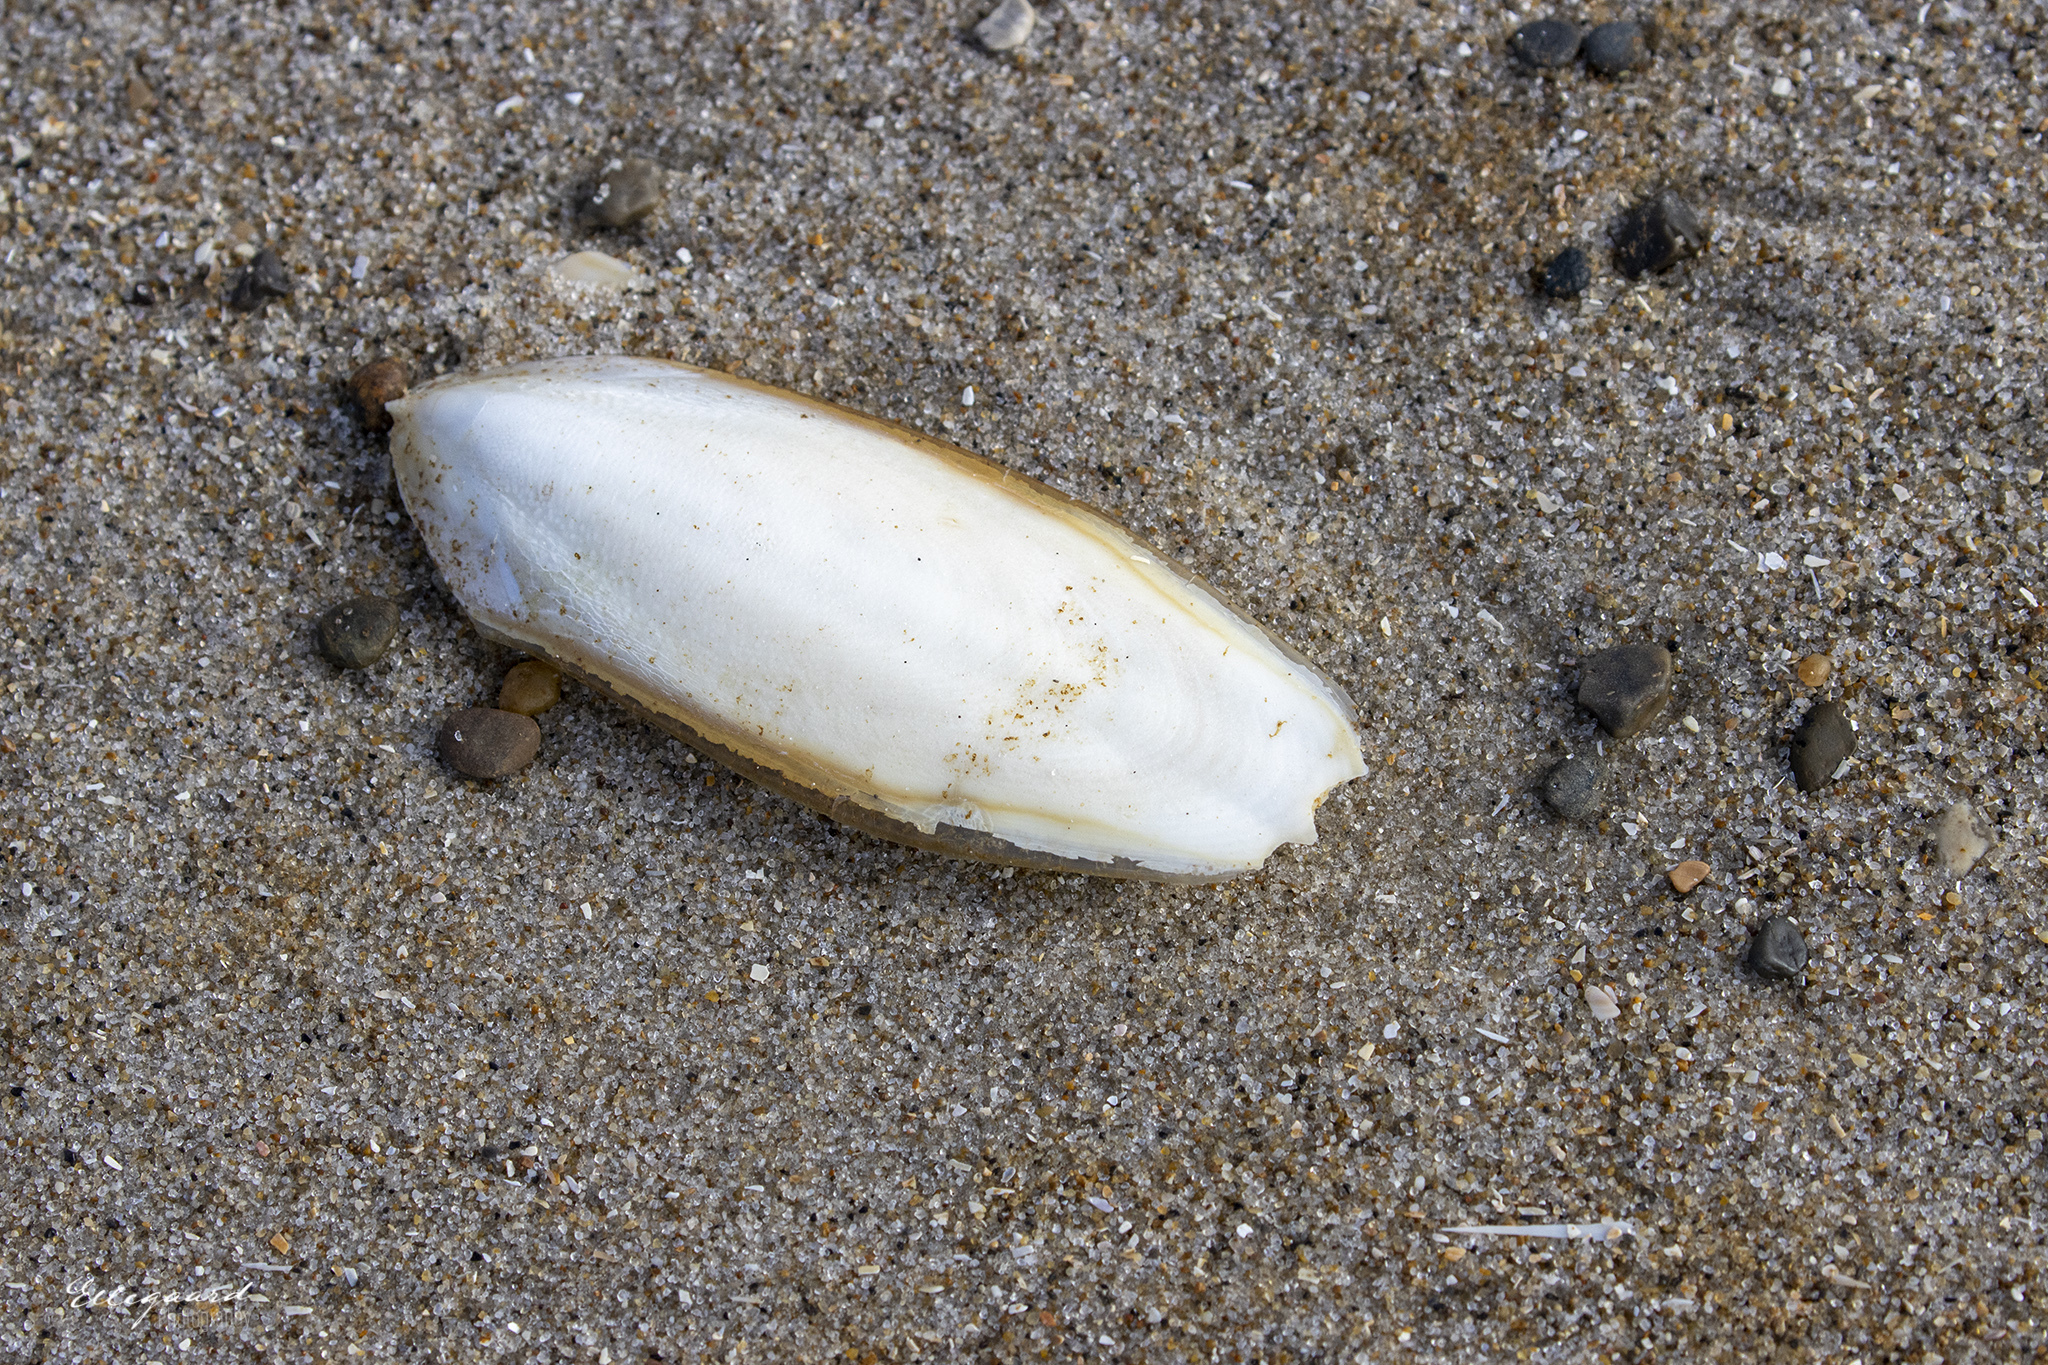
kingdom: Animalia
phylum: Mollusca
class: Cephalopoda
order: Sepiida
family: Sepiidae
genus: Sepia
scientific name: Sepia officinalis
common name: Common cuttlefish
